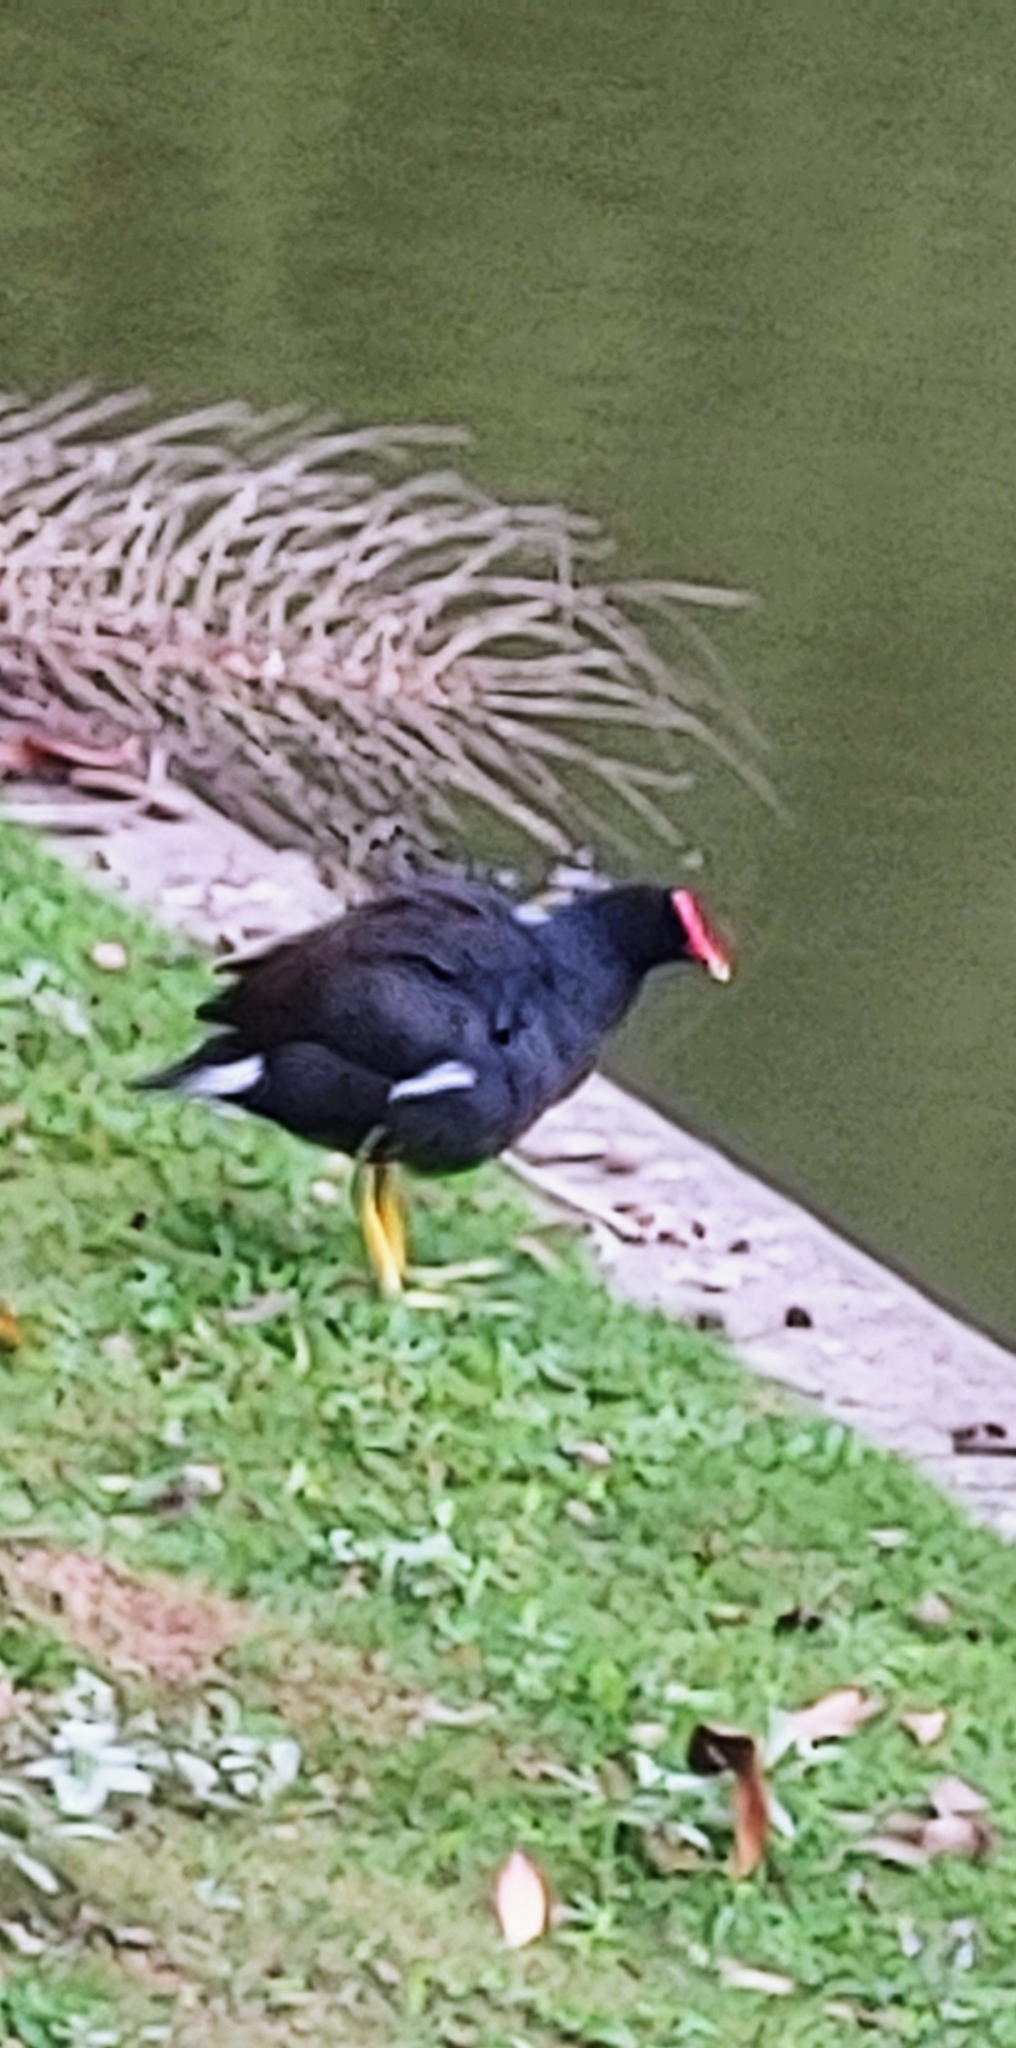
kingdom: Animalia
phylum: Chordata
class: Aves
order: Gruiformes
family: Rallidae
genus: Gallinula
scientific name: Gallinula chloropus
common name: Common moorhen
